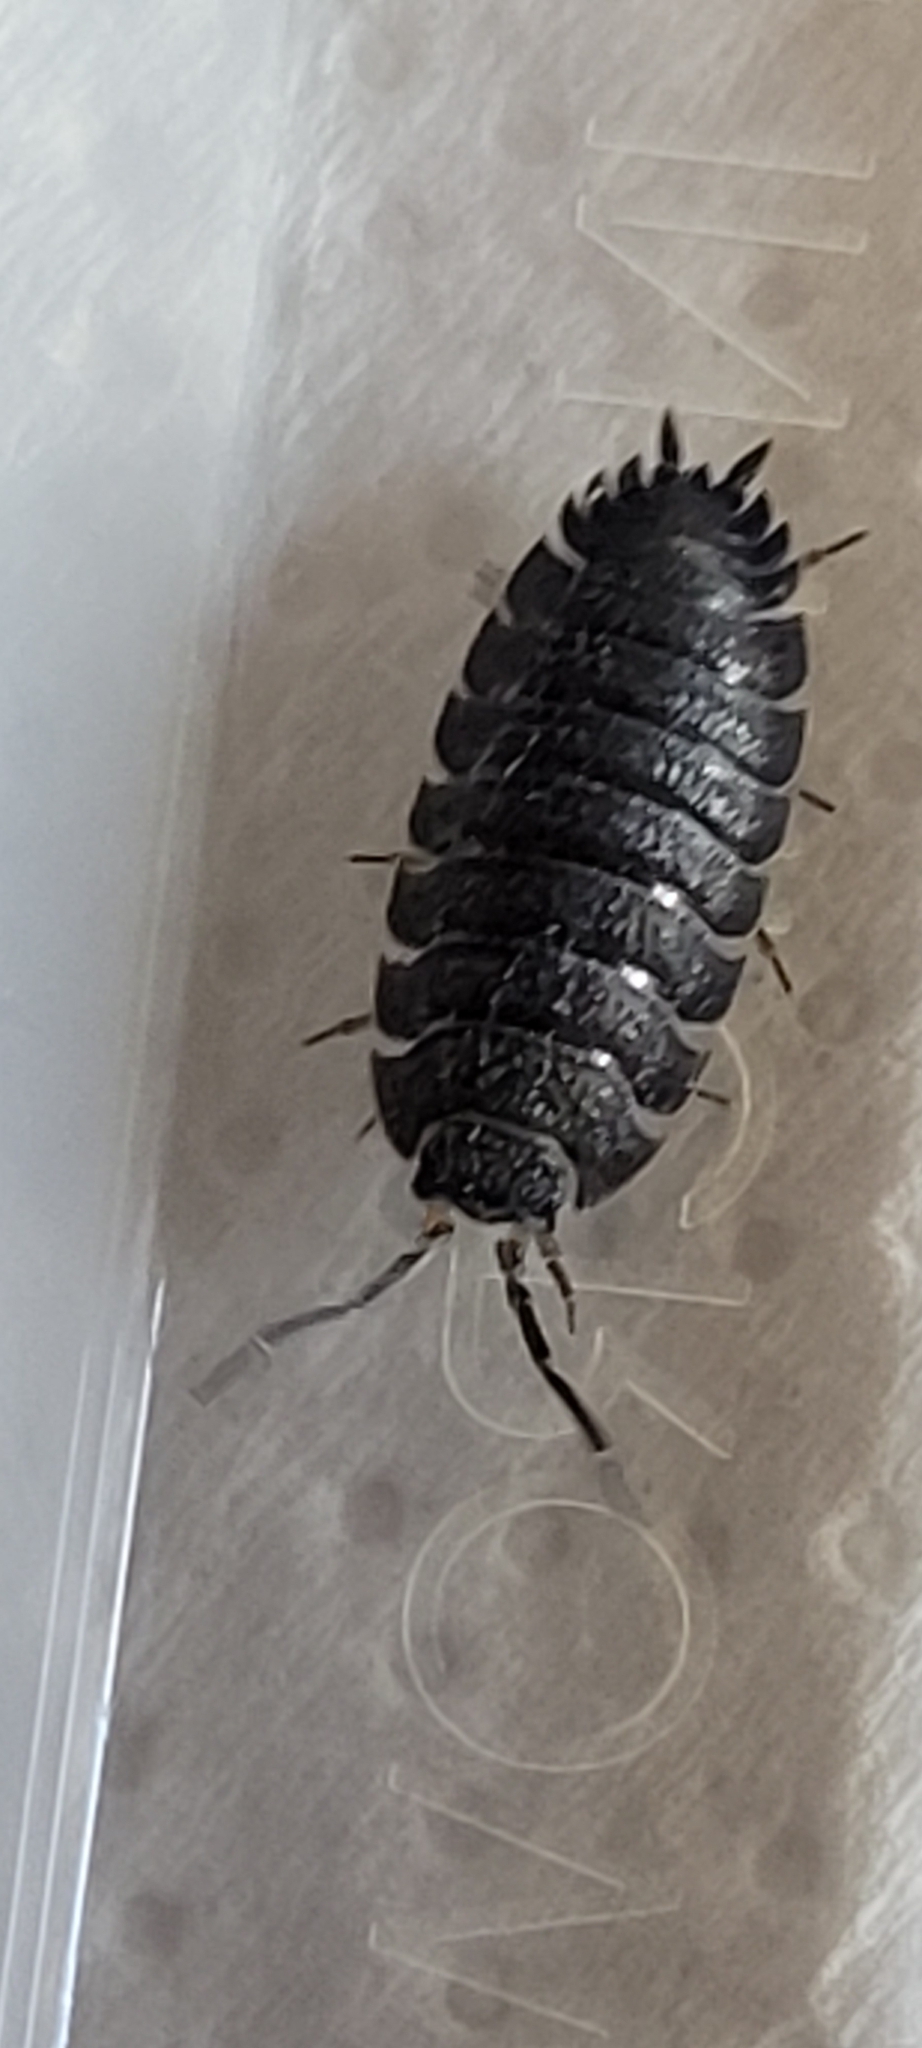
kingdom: Animalia
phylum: Arthropoda
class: Malacostraca
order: Isopoda
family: Porcellionidae
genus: Porcellio
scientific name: Porcellio scaber
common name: Common rough woodlouse
